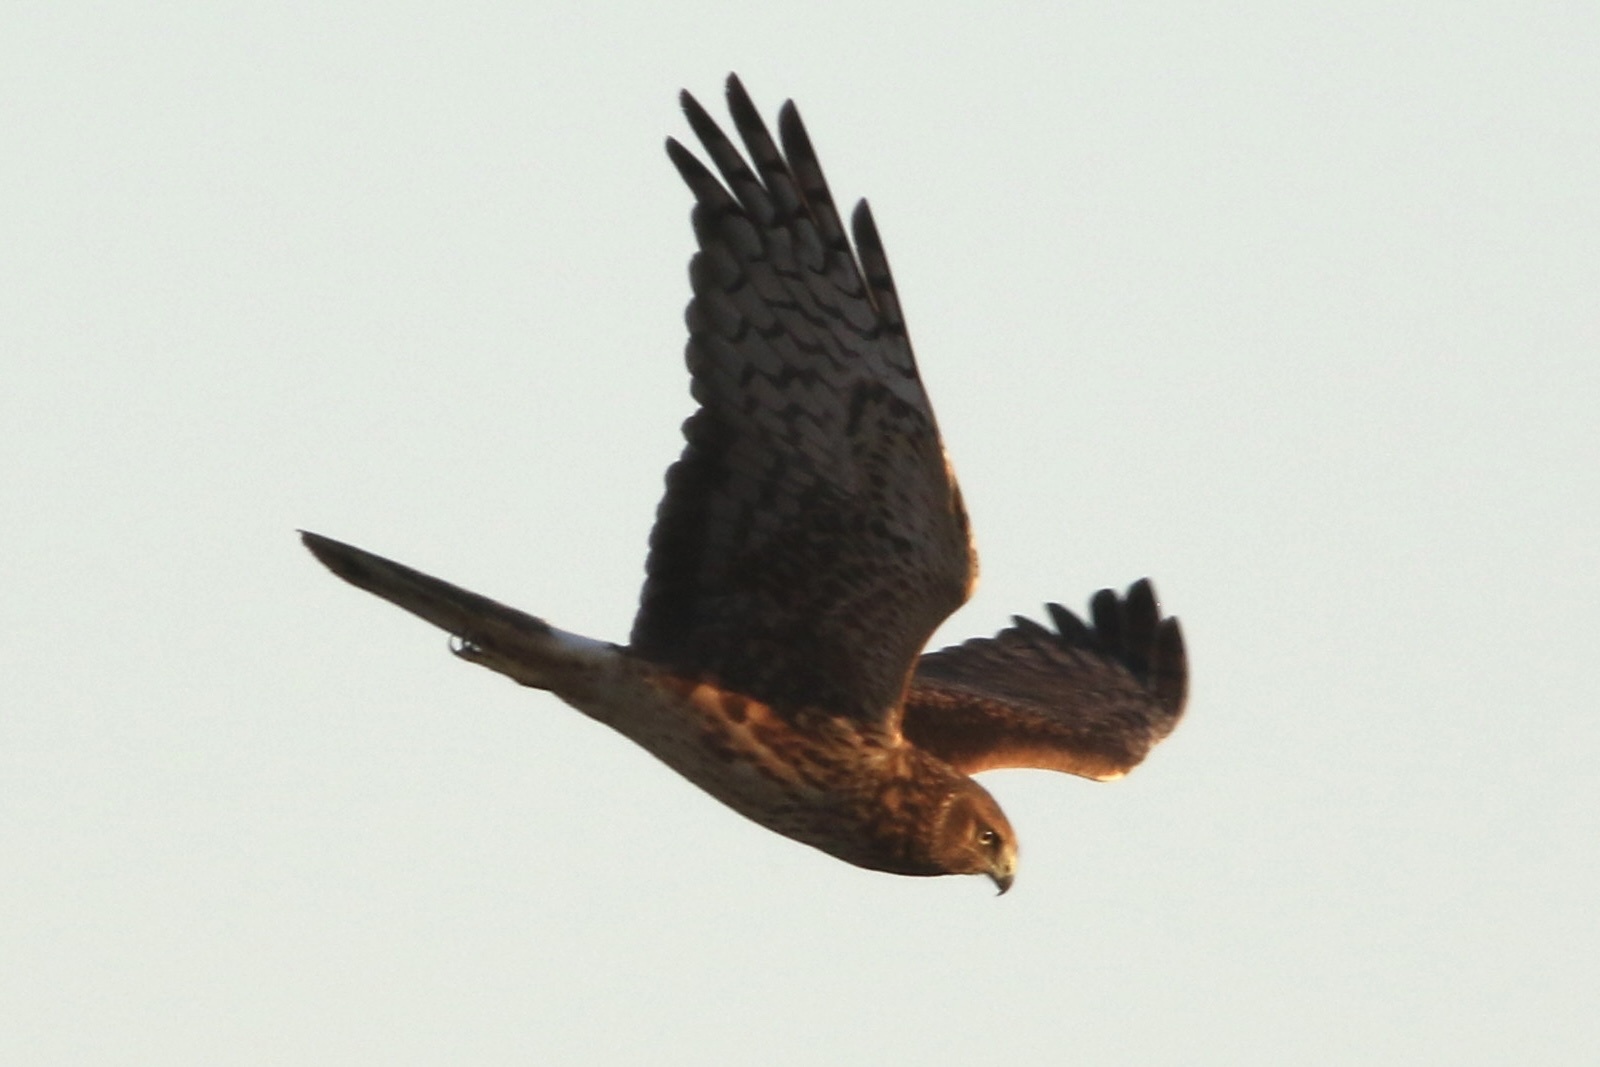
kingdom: Animalia
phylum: Chordata
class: Aves
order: Accipitriformes
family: Accipitridae
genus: Circus
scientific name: Circus cyaneus
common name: Hen harrier
